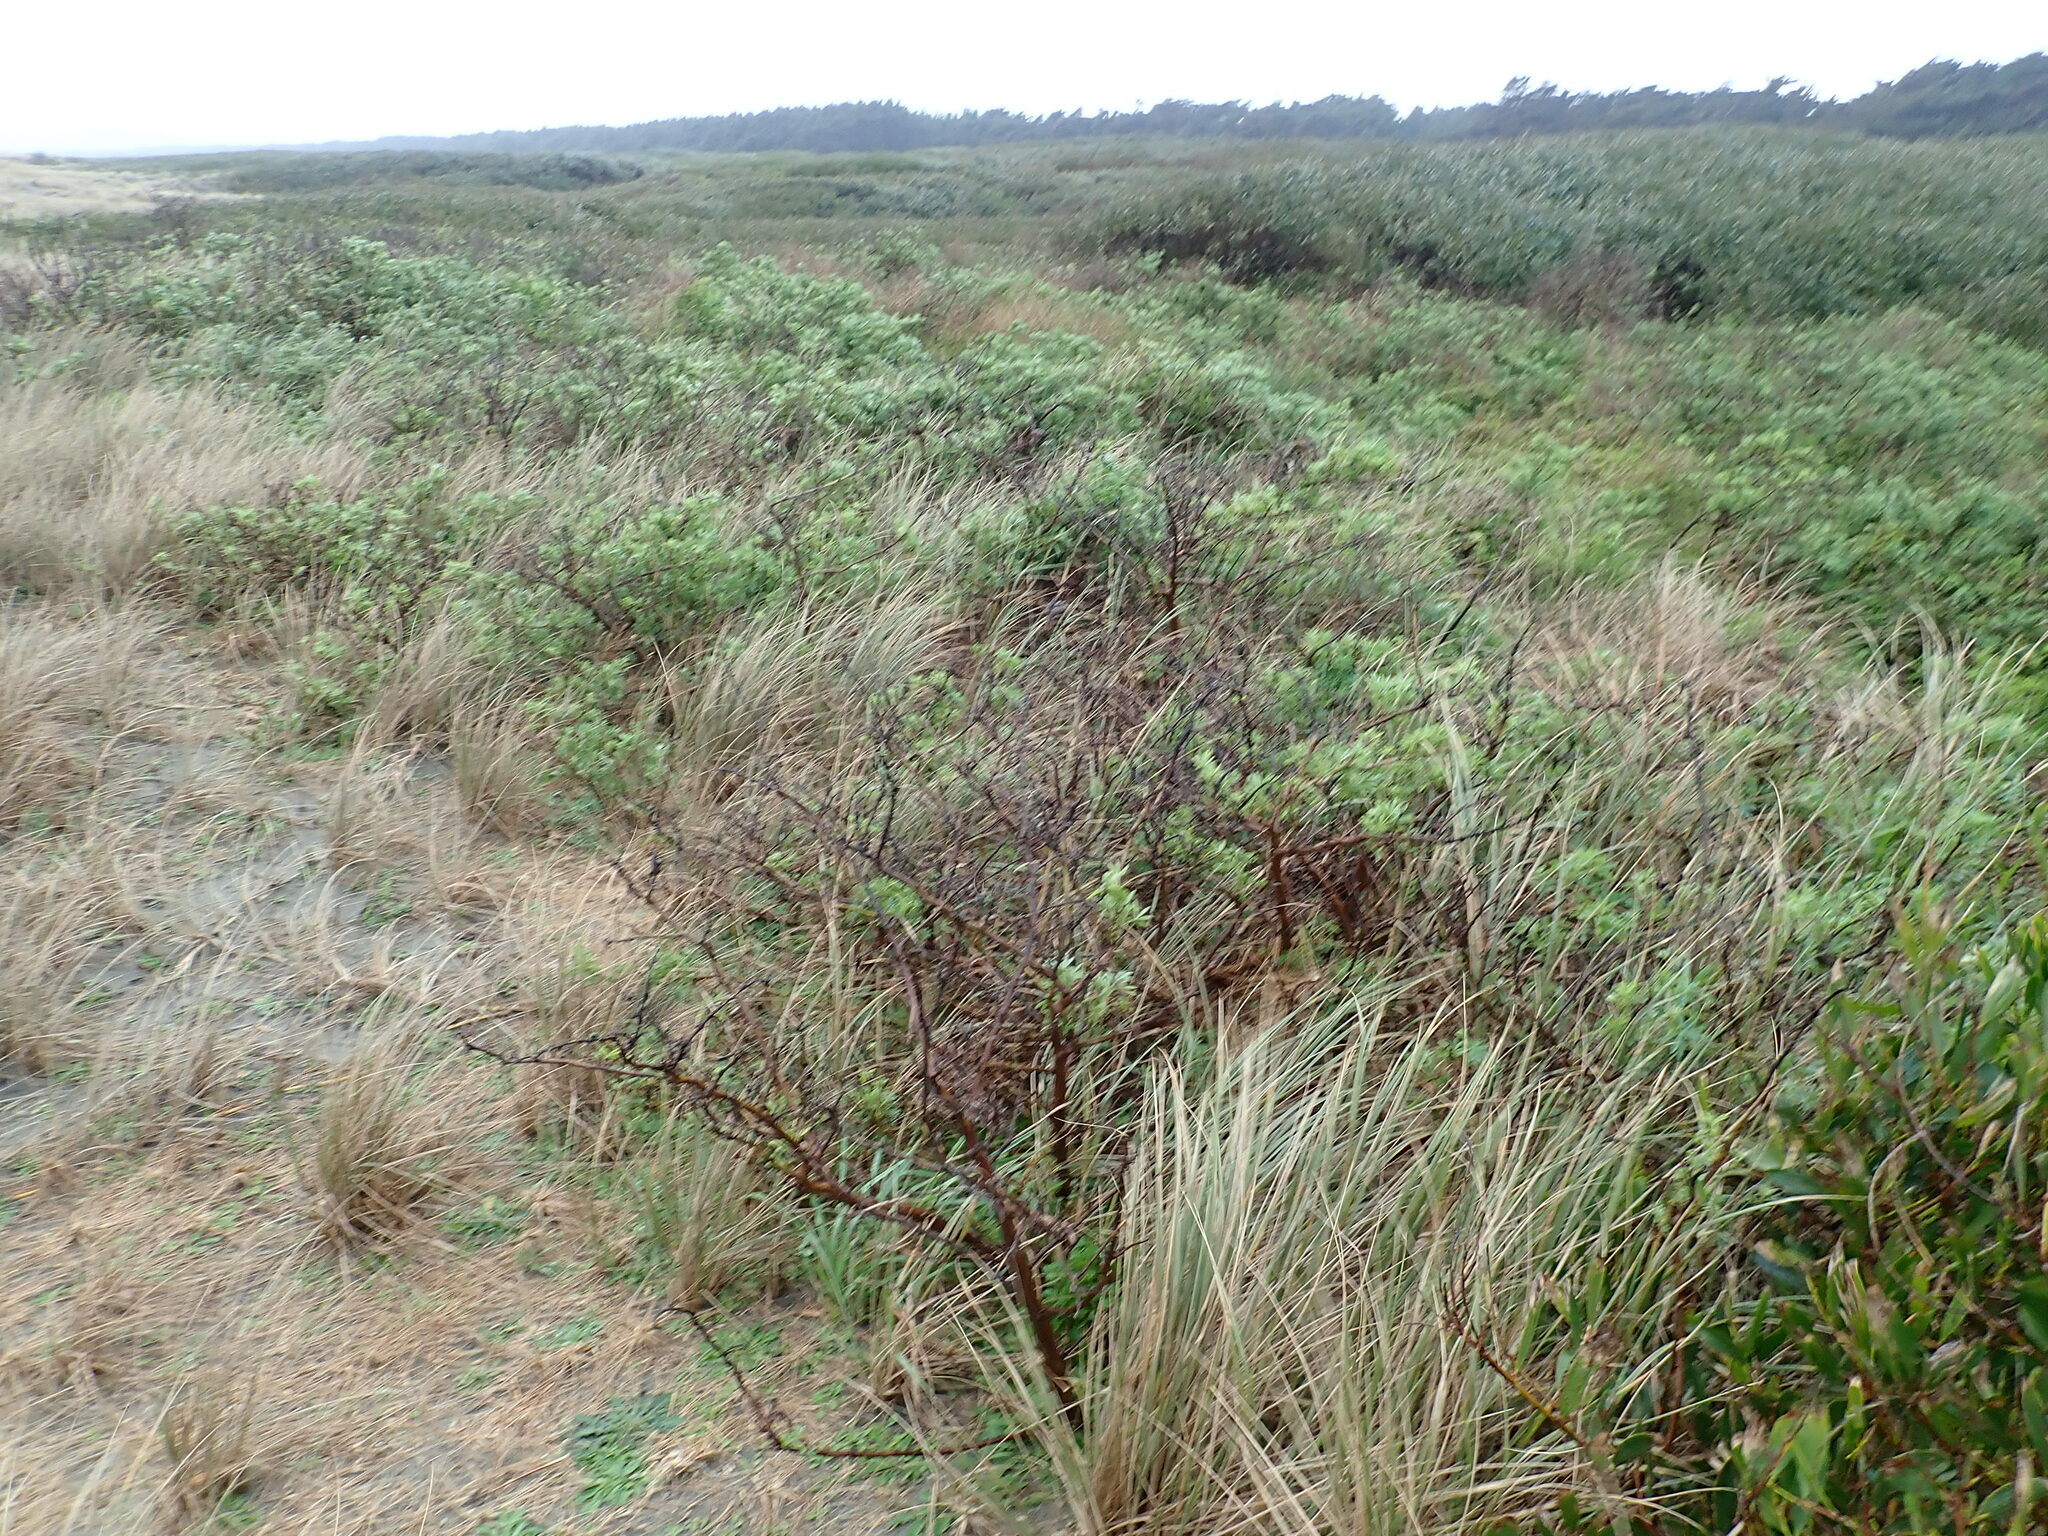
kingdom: Plantae
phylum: Tracheophyta
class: Magnoliopsida
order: Fabales
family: Fabaceae
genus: Lupinus
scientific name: Lupinus arboreus
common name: Yellow bush lupine
